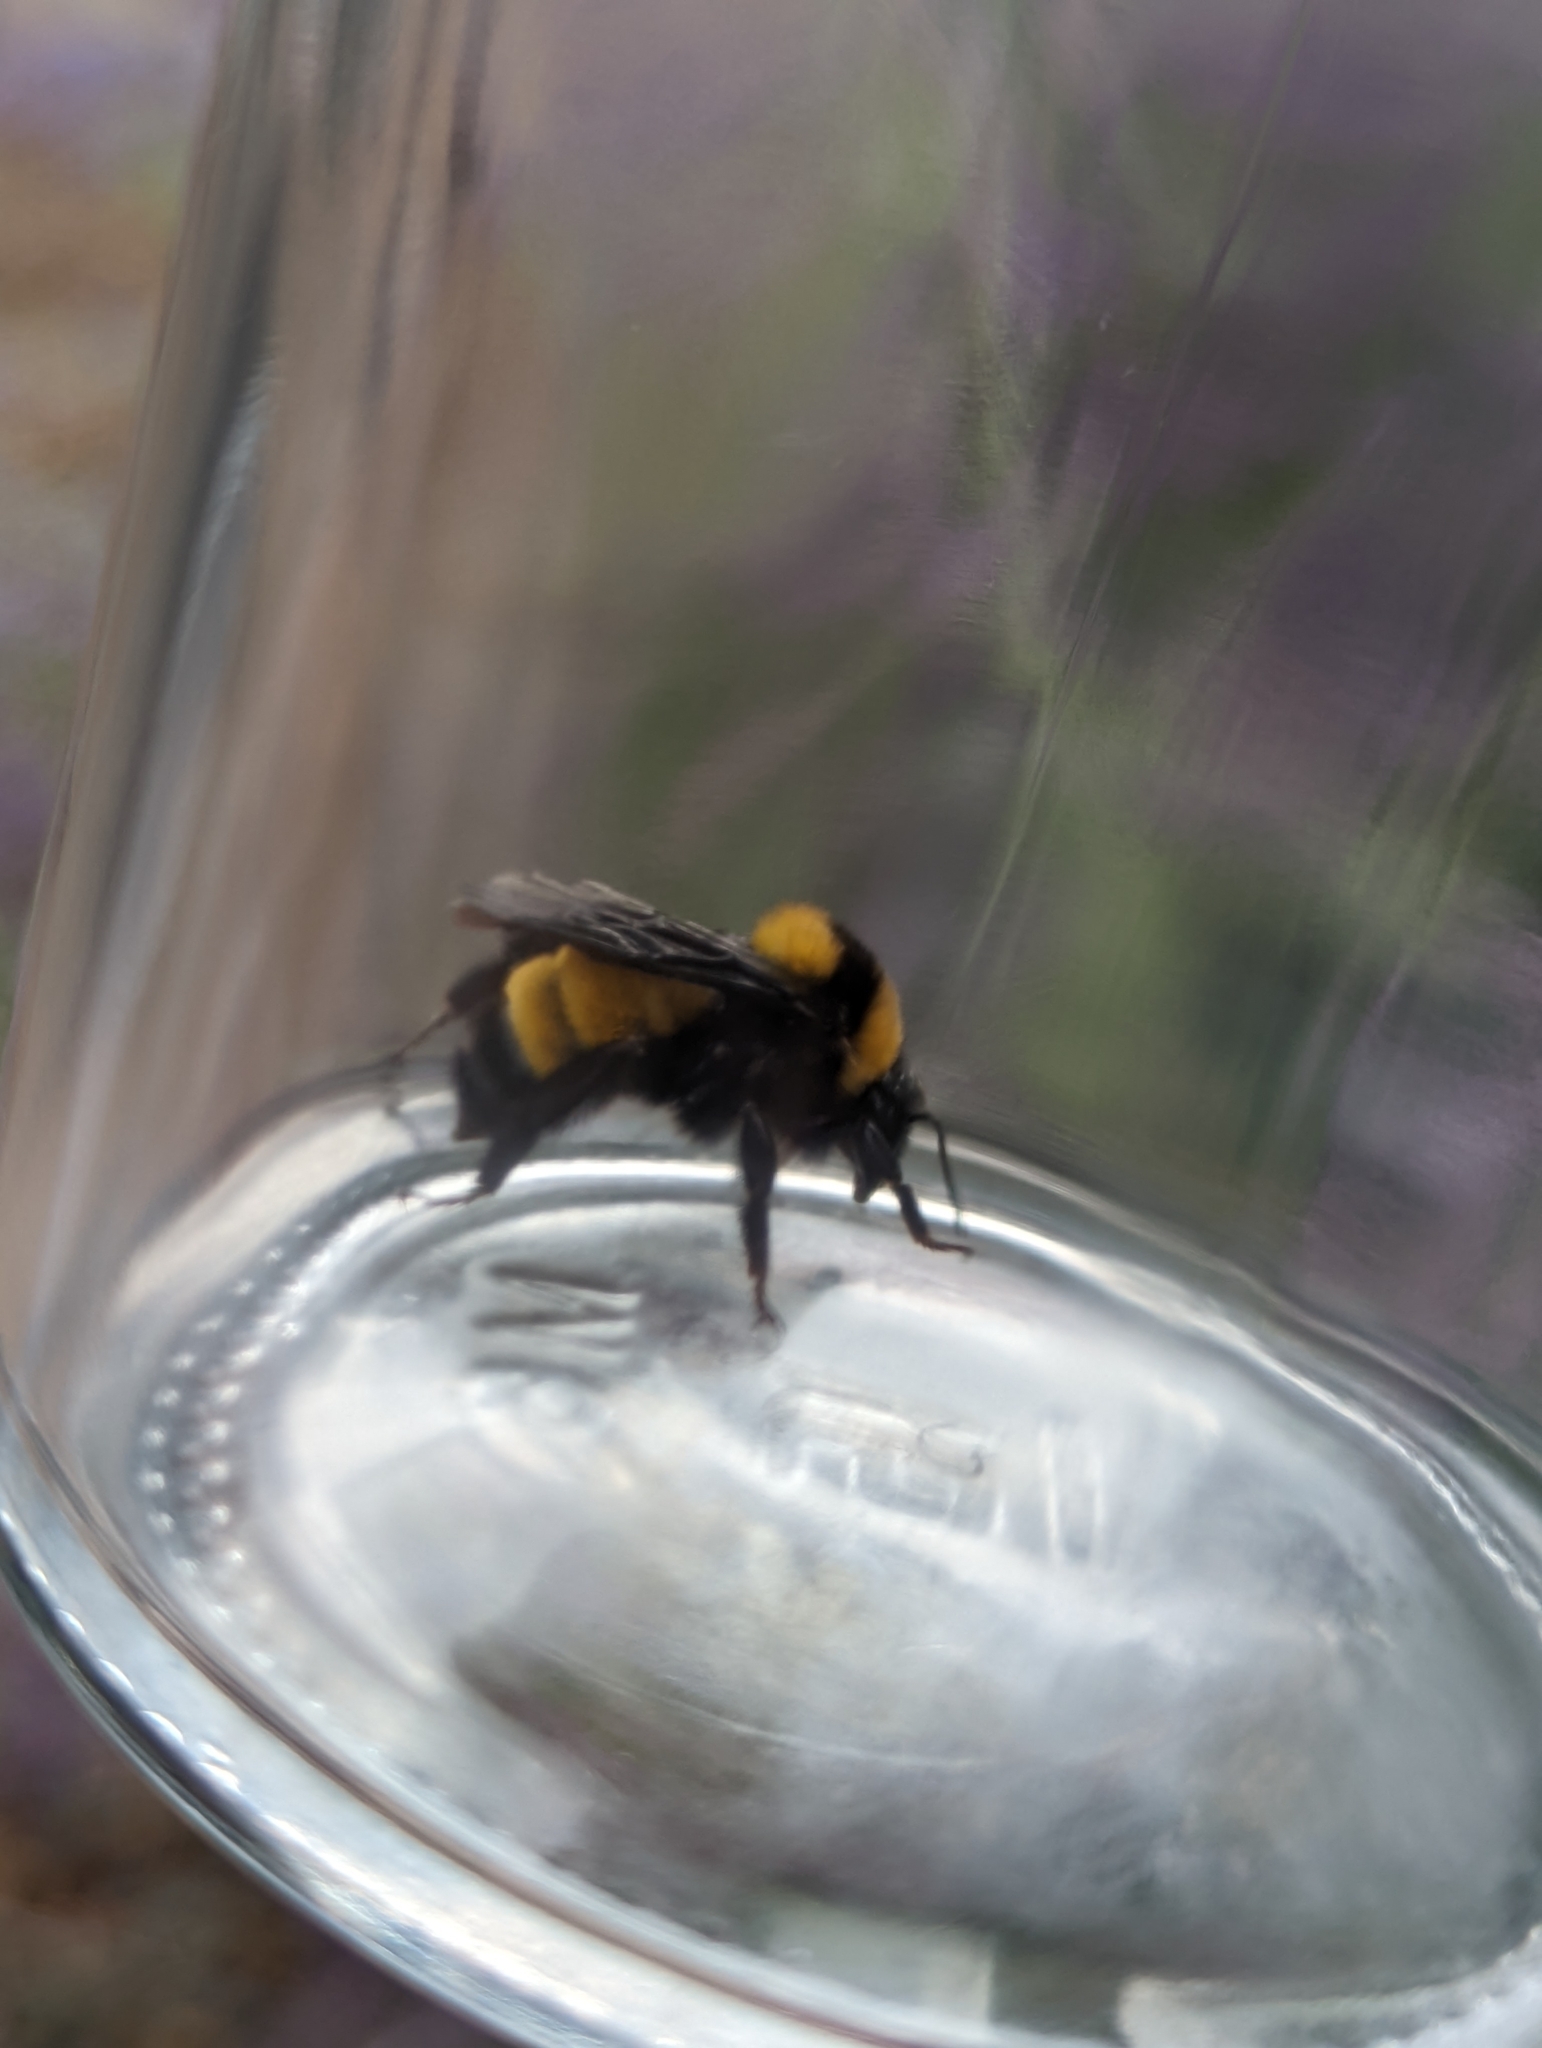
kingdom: Animalia
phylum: Arthropoda
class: Insecta
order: Hymenoptera
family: Apidae
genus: Bombus
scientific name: Bombus sonorus
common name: Sonoran bumble bee
